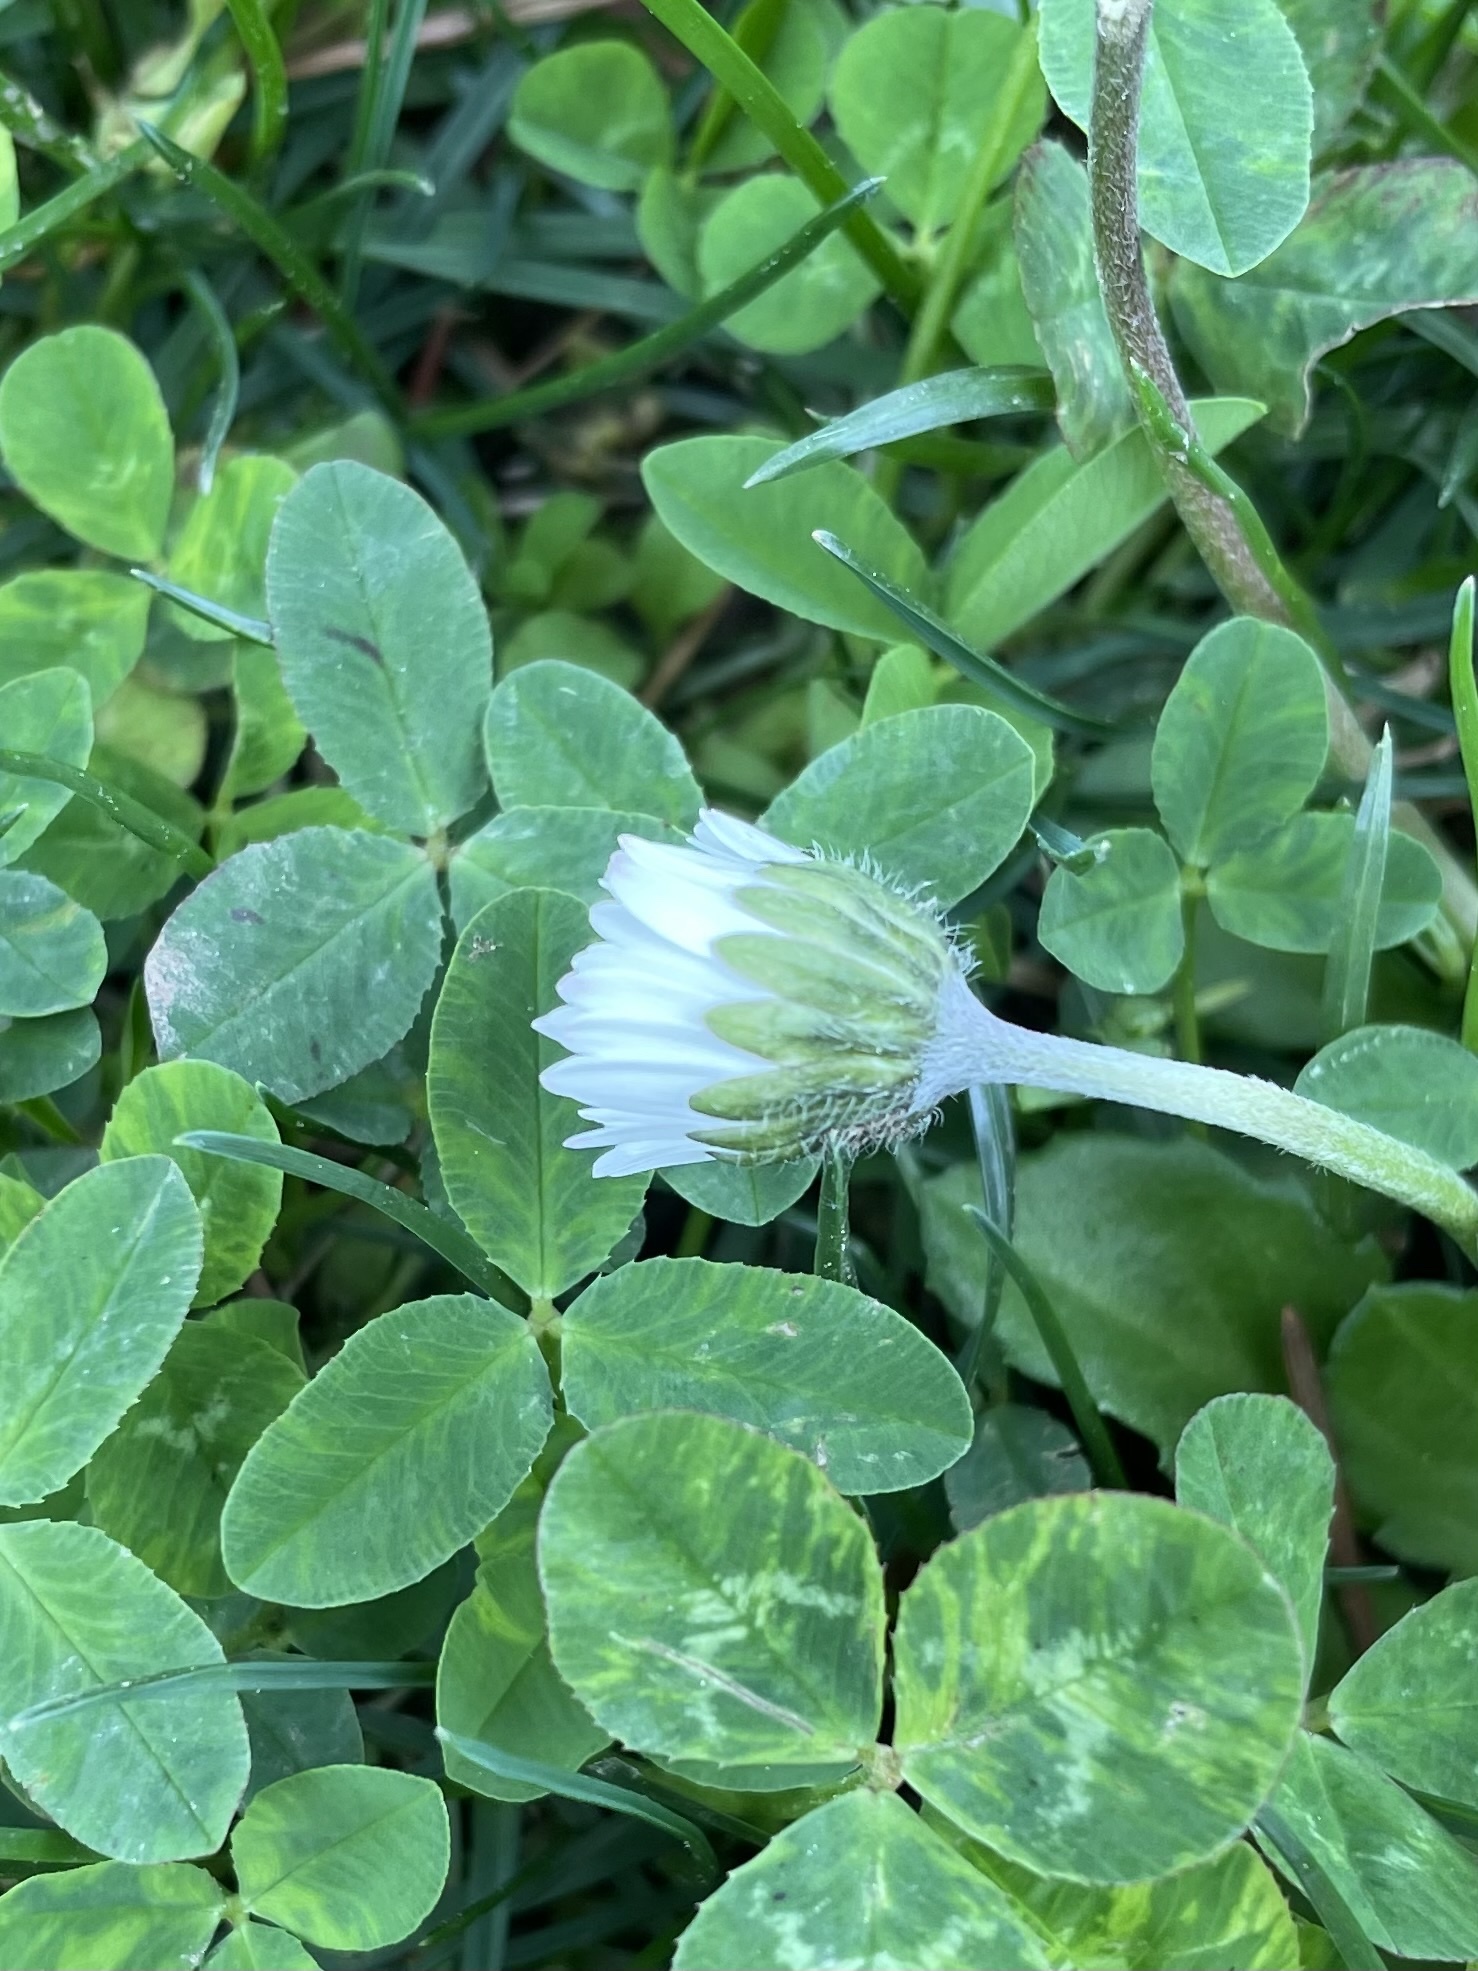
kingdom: Plantae
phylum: Tracheophyta
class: Magnoliopsida
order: Asterales
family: Asteraceae
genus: Bellis
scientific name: Bellis perennis
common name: Lawndaisy
